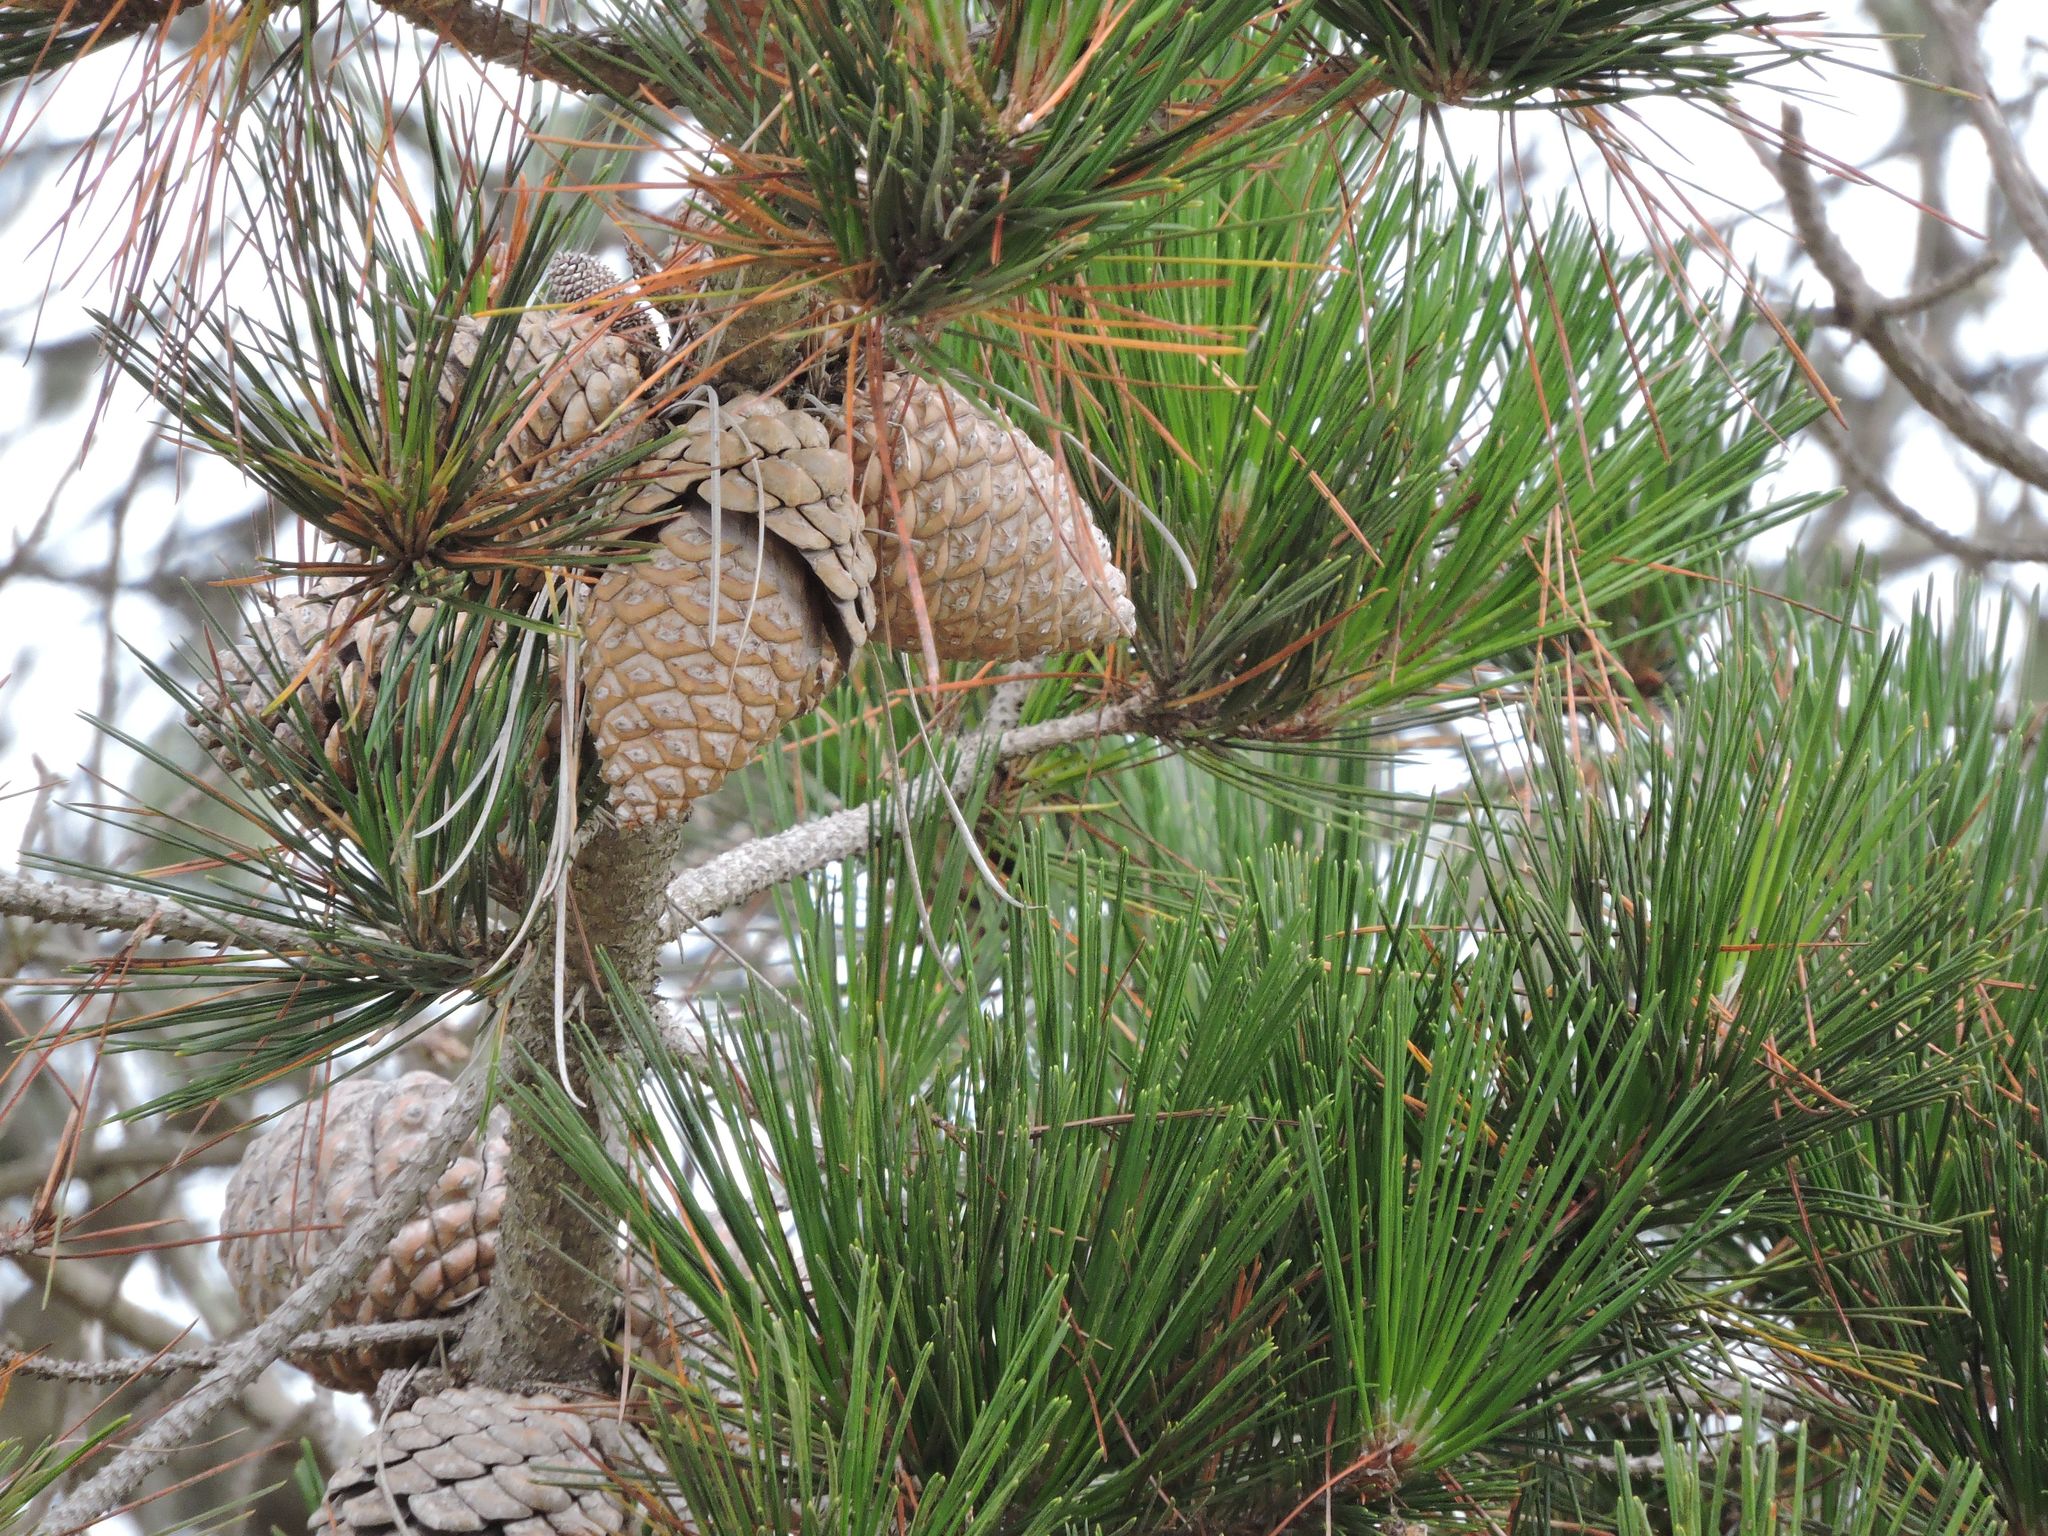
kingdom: Plantae
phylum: Tracheophyta
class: Pinopsida
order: Pinales
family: Pinaceae
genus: Pinus
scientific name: Pinus radiata
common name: Monterey pine
